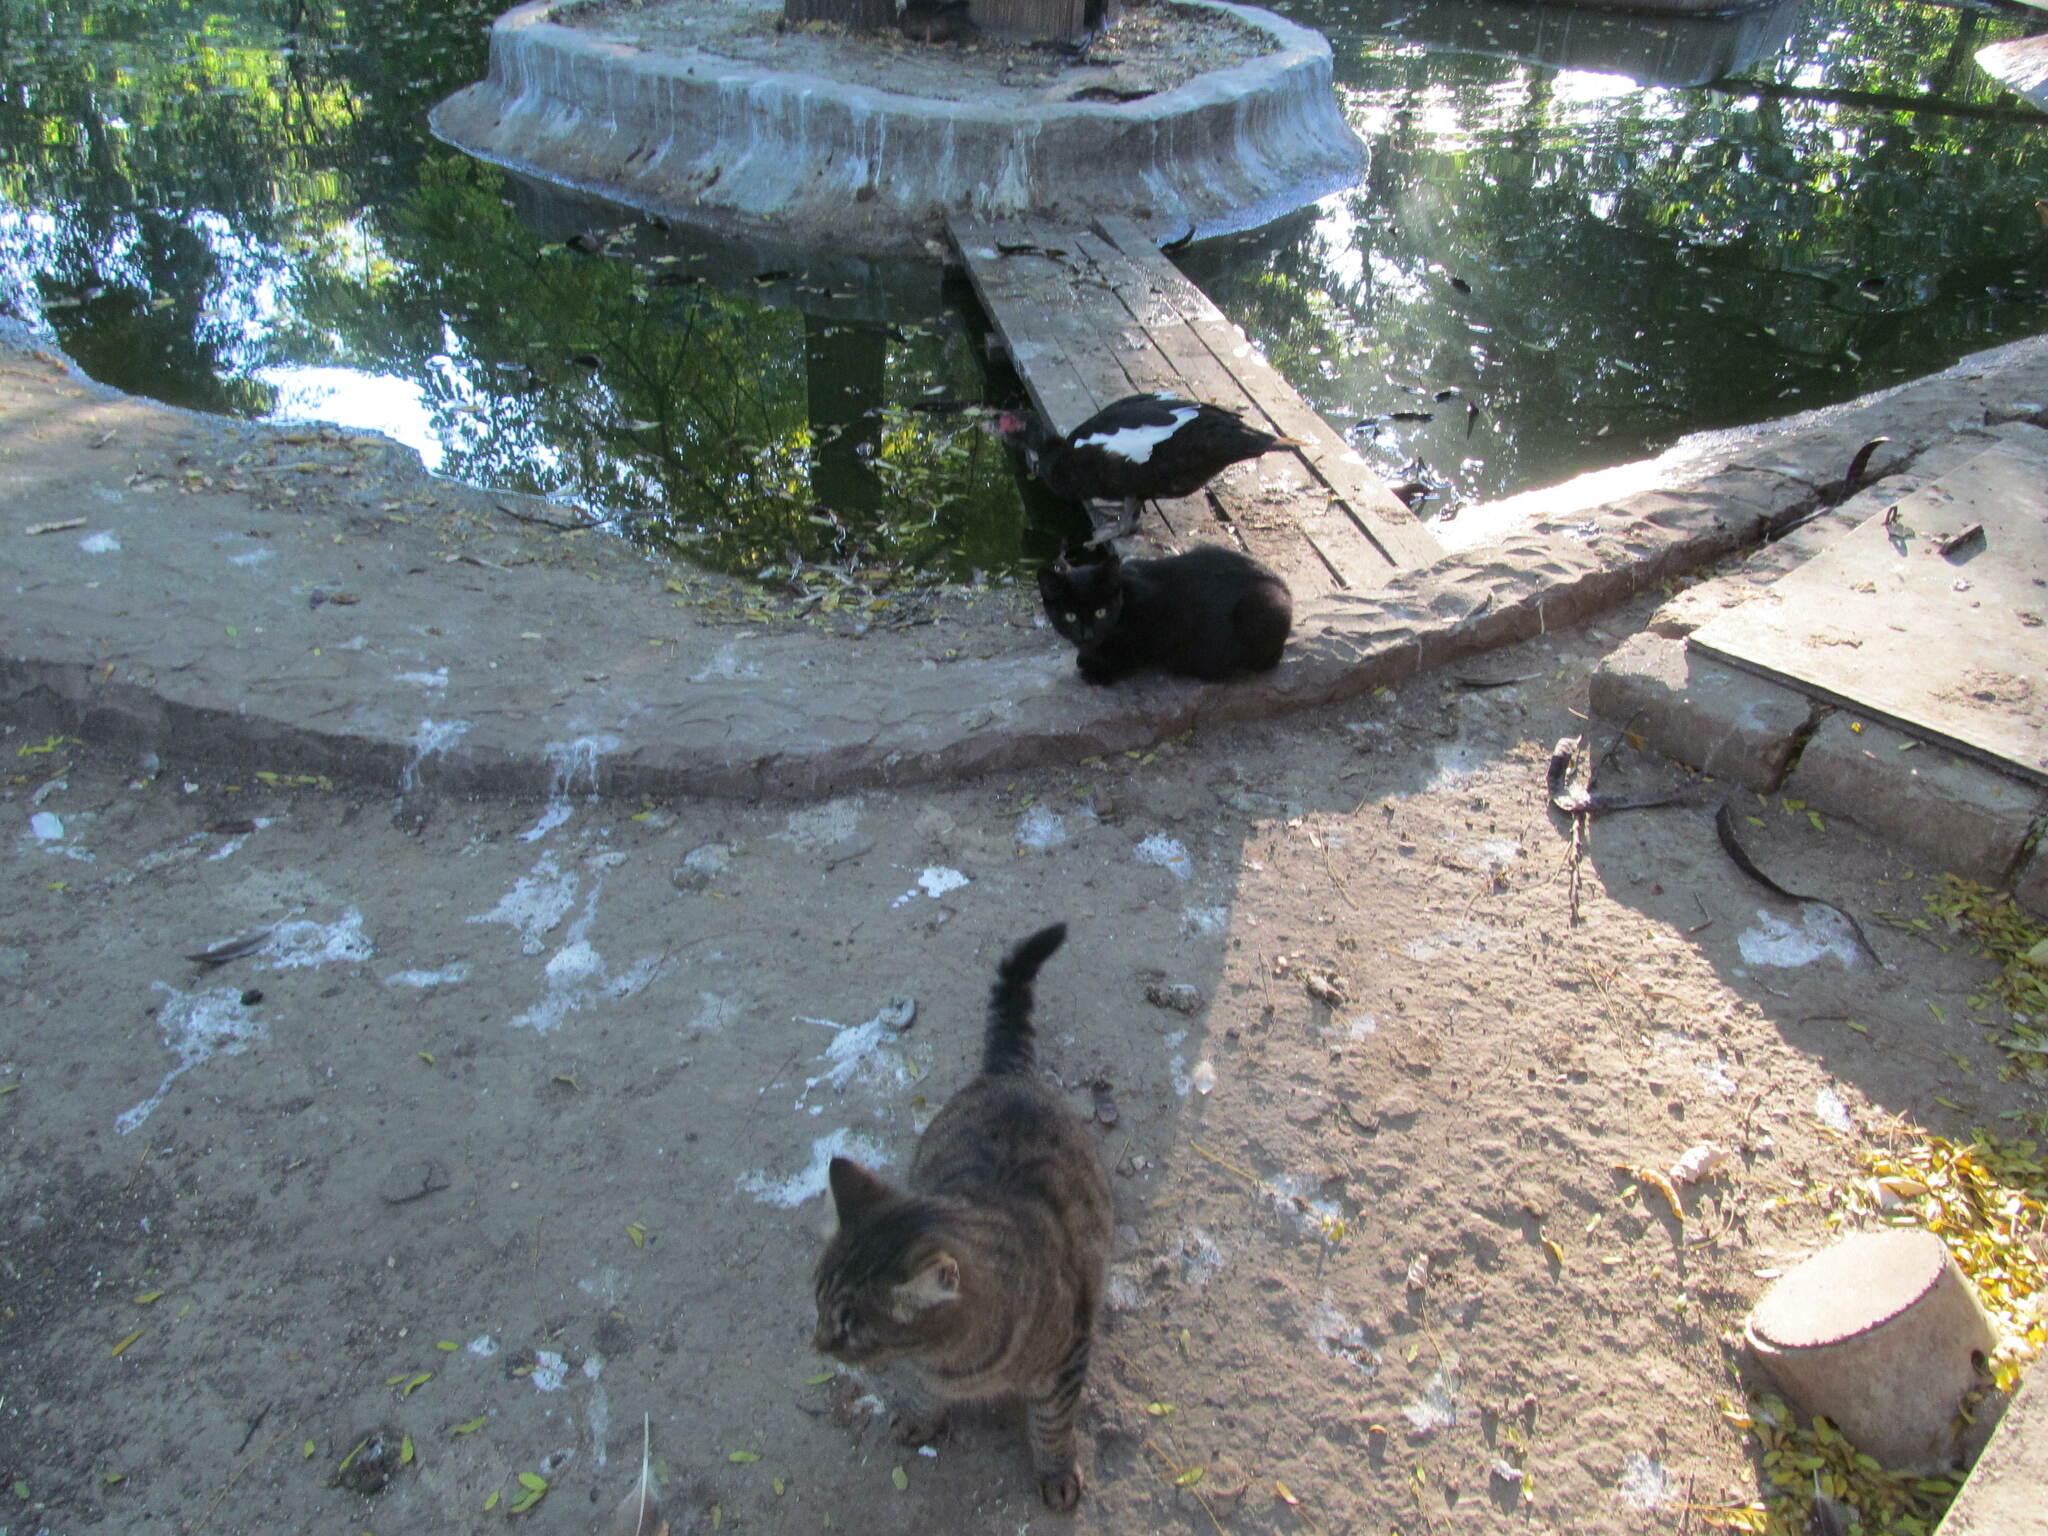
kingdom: Animalia
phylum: Chordata
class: Mammalia
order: Carnivora
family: Felidae
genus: Felis
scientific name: Felis catus
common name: Domestic cat
